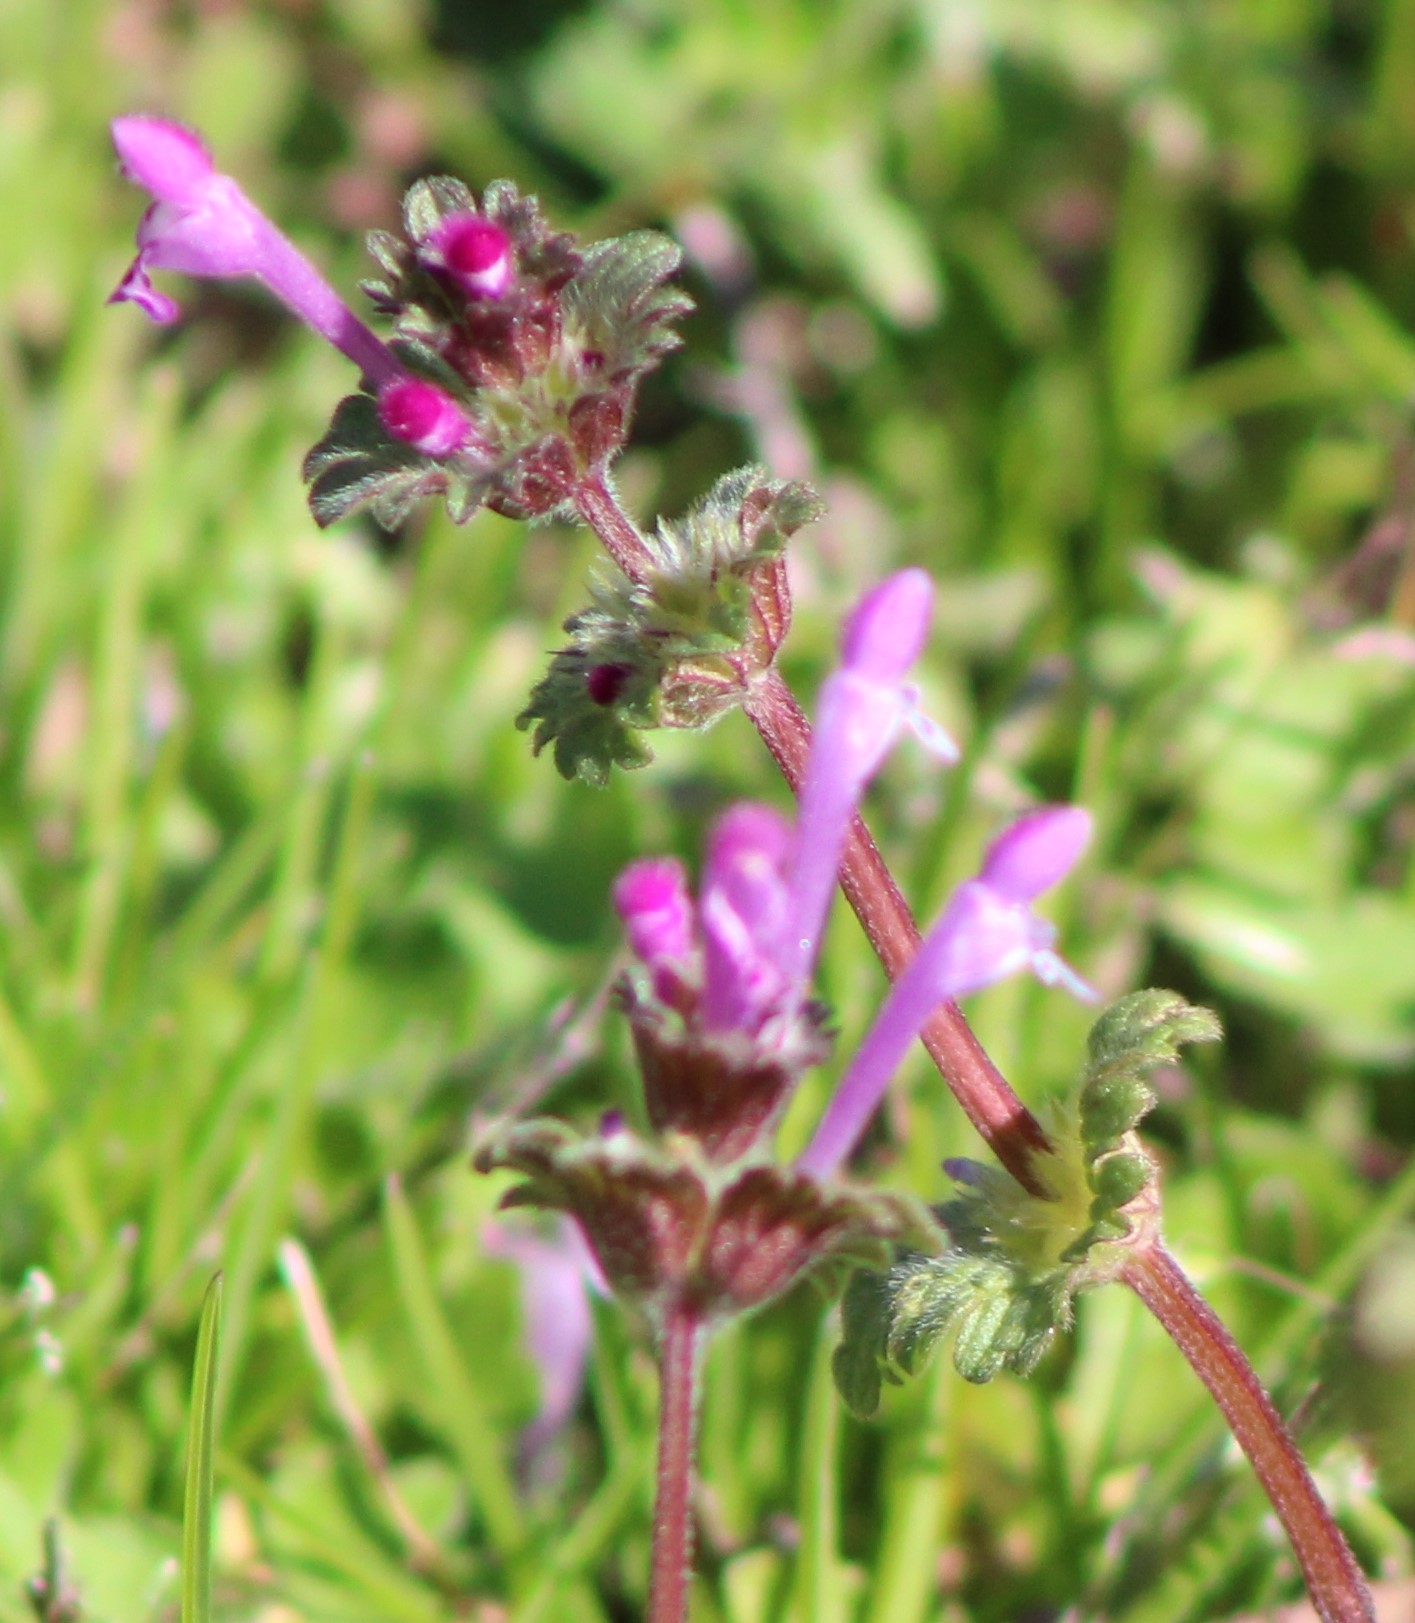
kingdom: Plantae
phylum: Tracheophyta
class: Magnoliopsida
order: Lamiales
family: Lamiaceae
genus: Lamium
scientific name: Lamium amplexicaule
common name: Henbit dead-nettle
